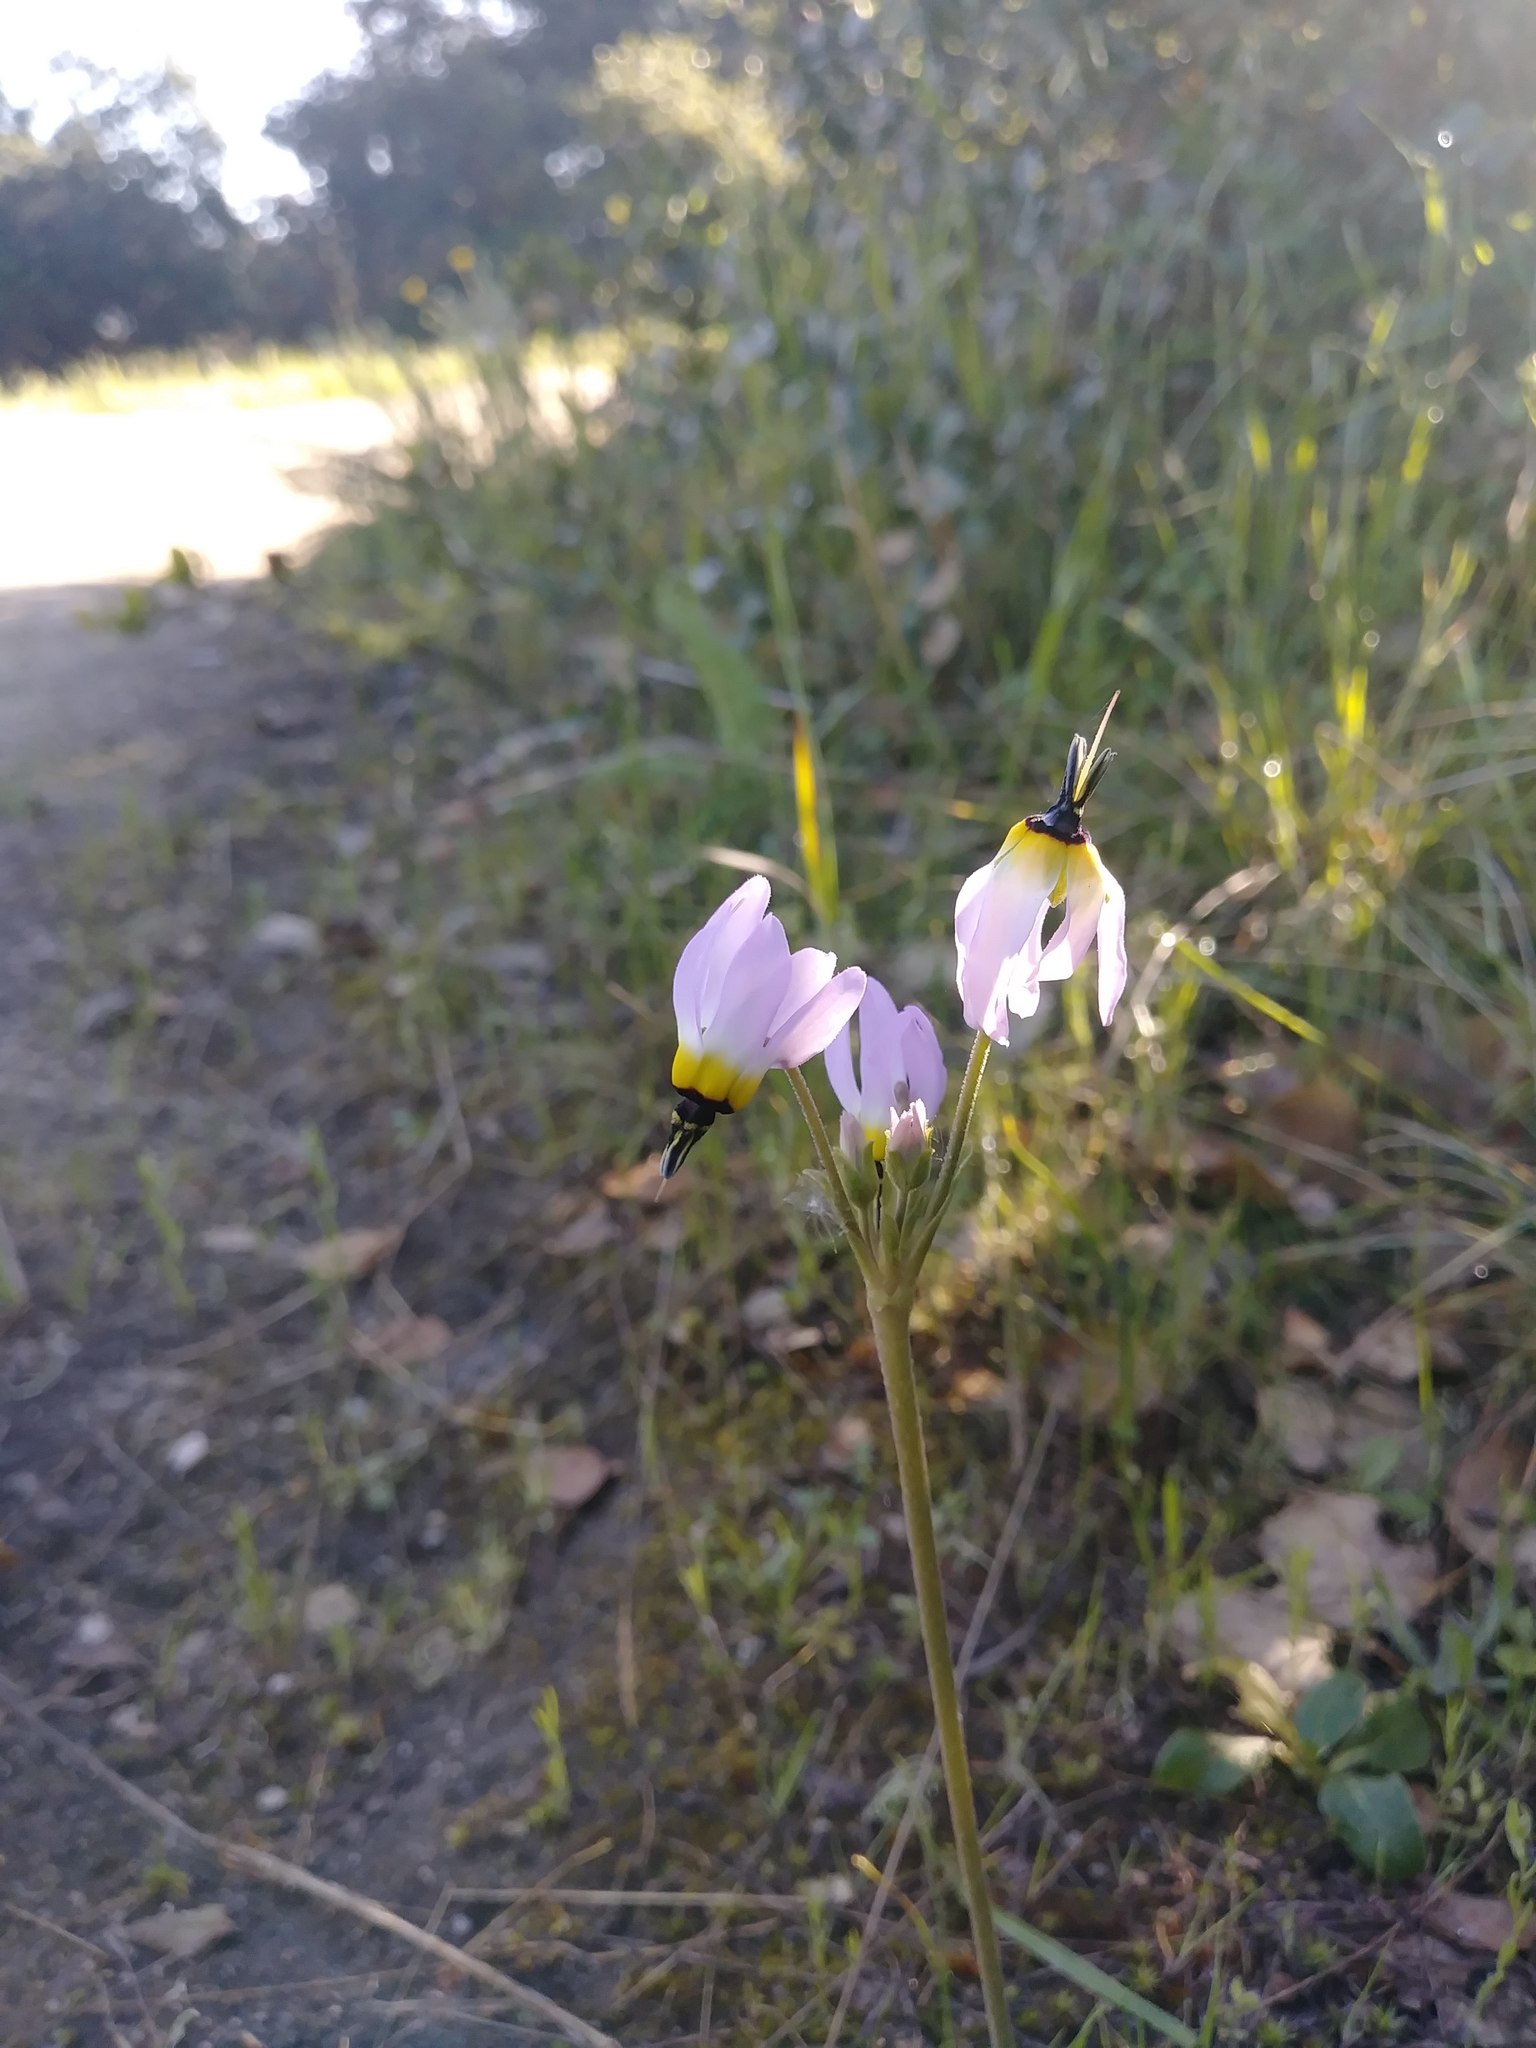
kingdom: Plantae
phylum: Tracheophyta
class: Magnoliopsida
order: Ericales
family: Primulaceae
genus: Dodecatheon
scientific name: Dodecatheon clevelandii
